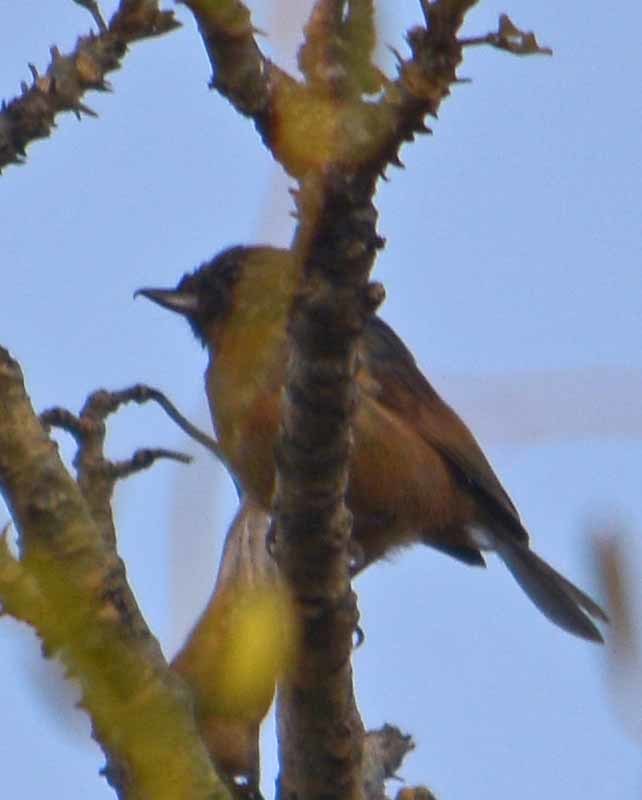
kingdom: Animalia
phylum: Chordata
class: Aves
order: Passeriformes
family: Thraupidae
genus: Diglossa
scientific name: Diglossa baritula
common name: Cinnamon-bellied flowerpiercer
